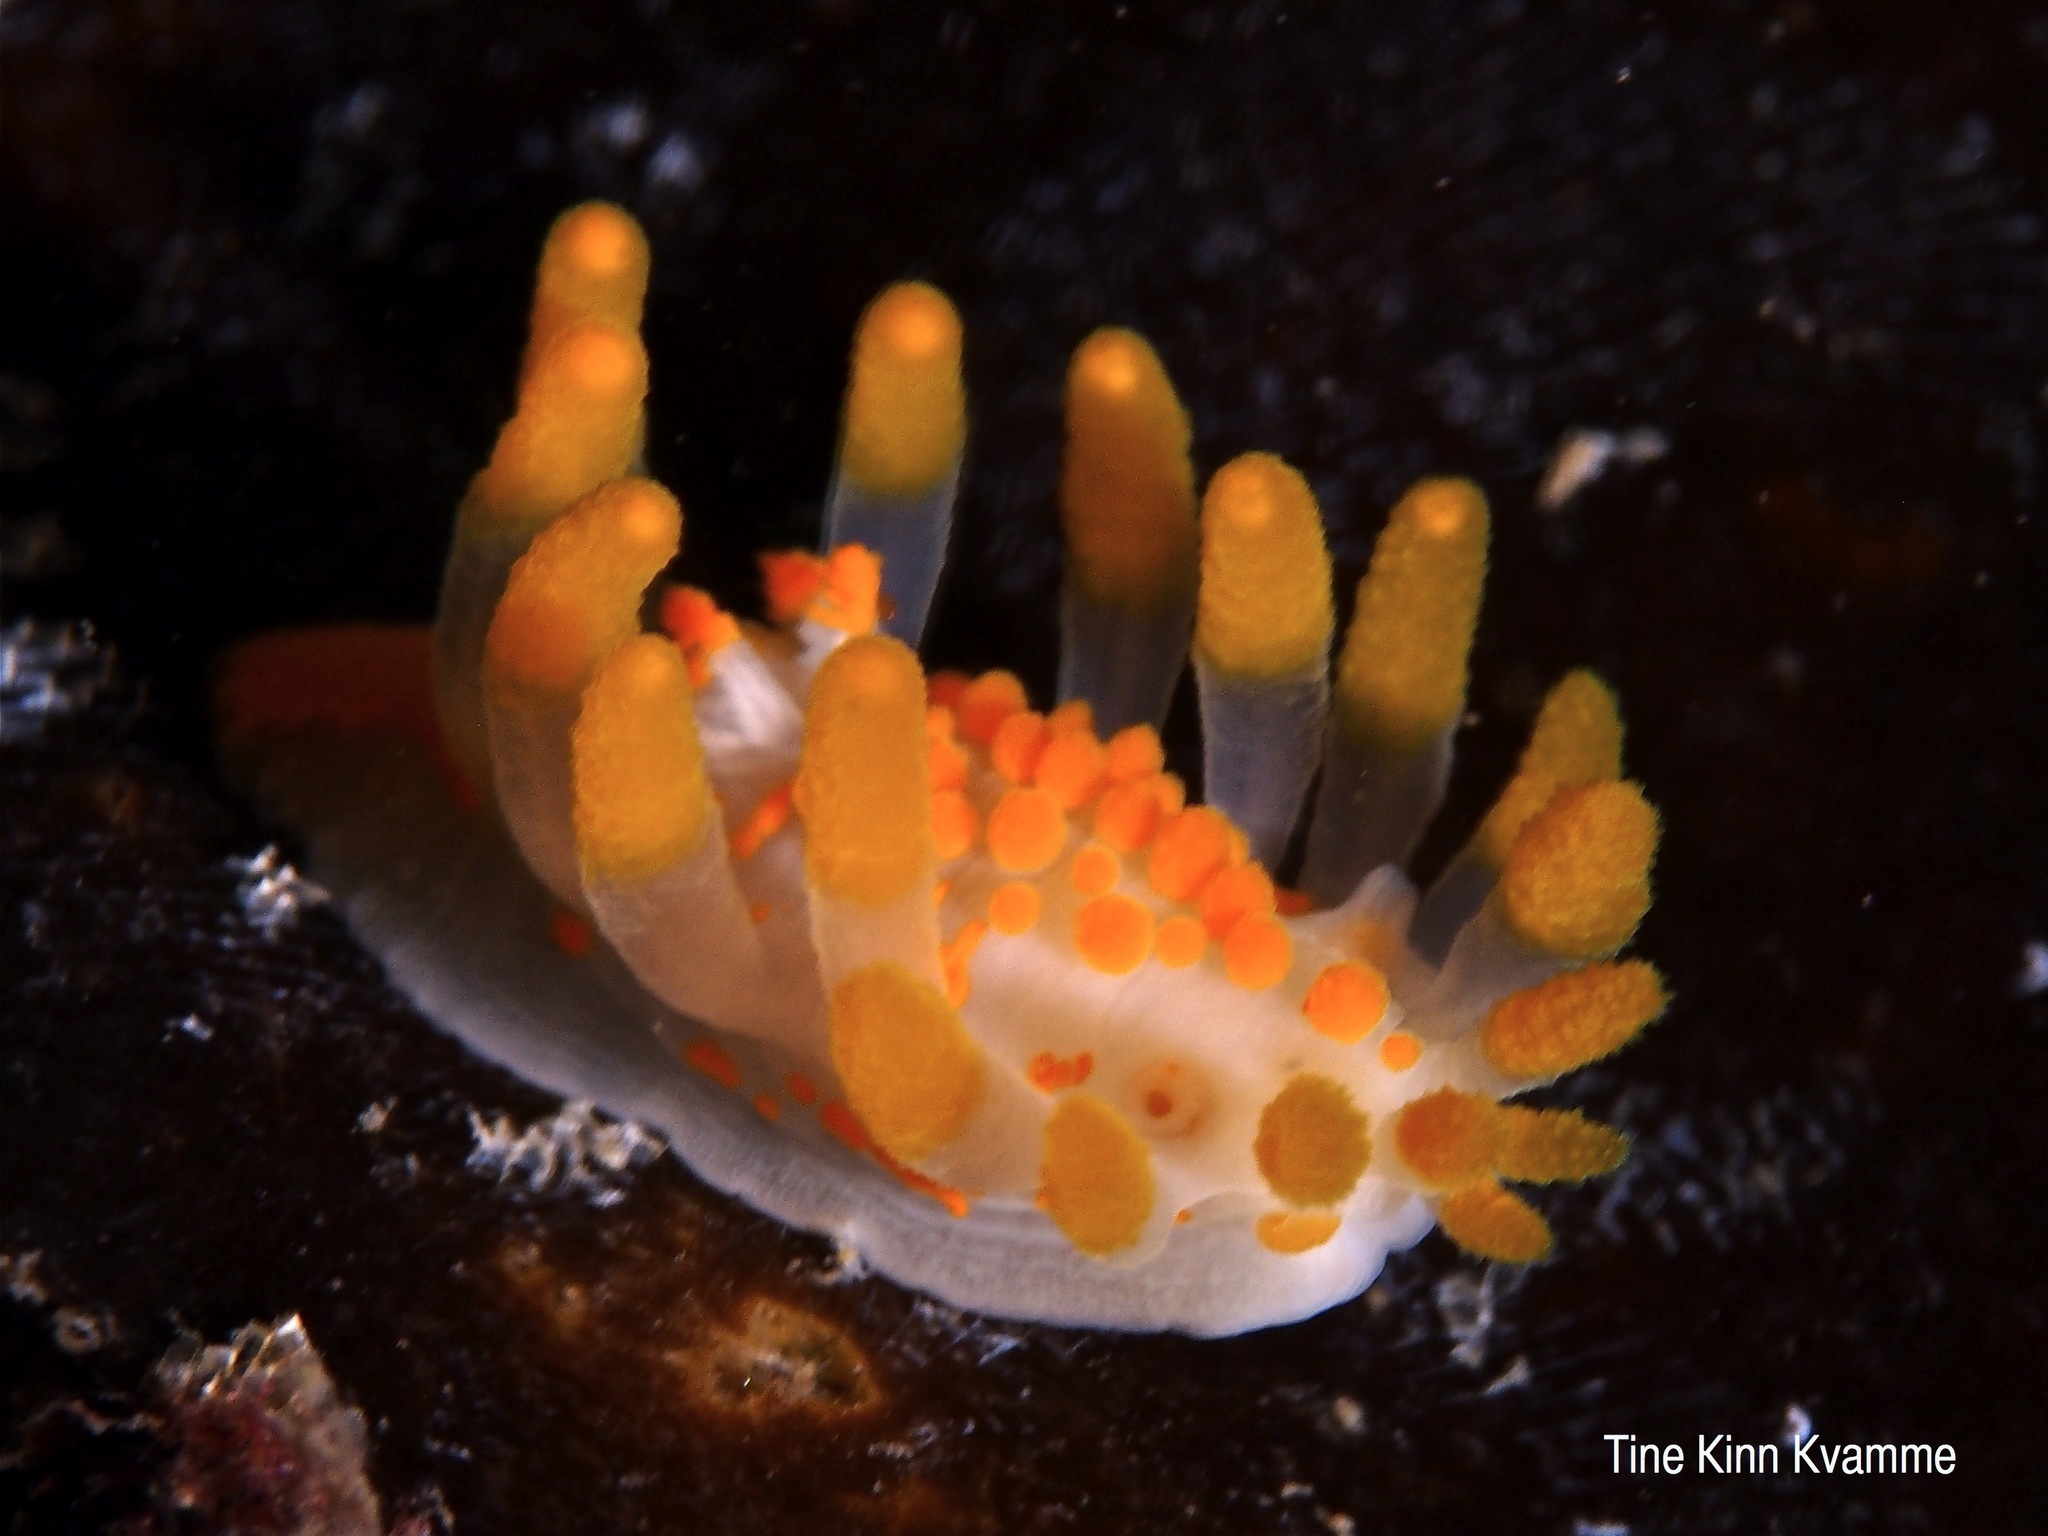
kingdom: Animalia
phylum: Mollusca
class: Gastropoda
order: Nudibranchia
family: Polyceridae
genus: Limacia
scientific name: Limacia clavigera
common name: Orange-clubbed sea slug
